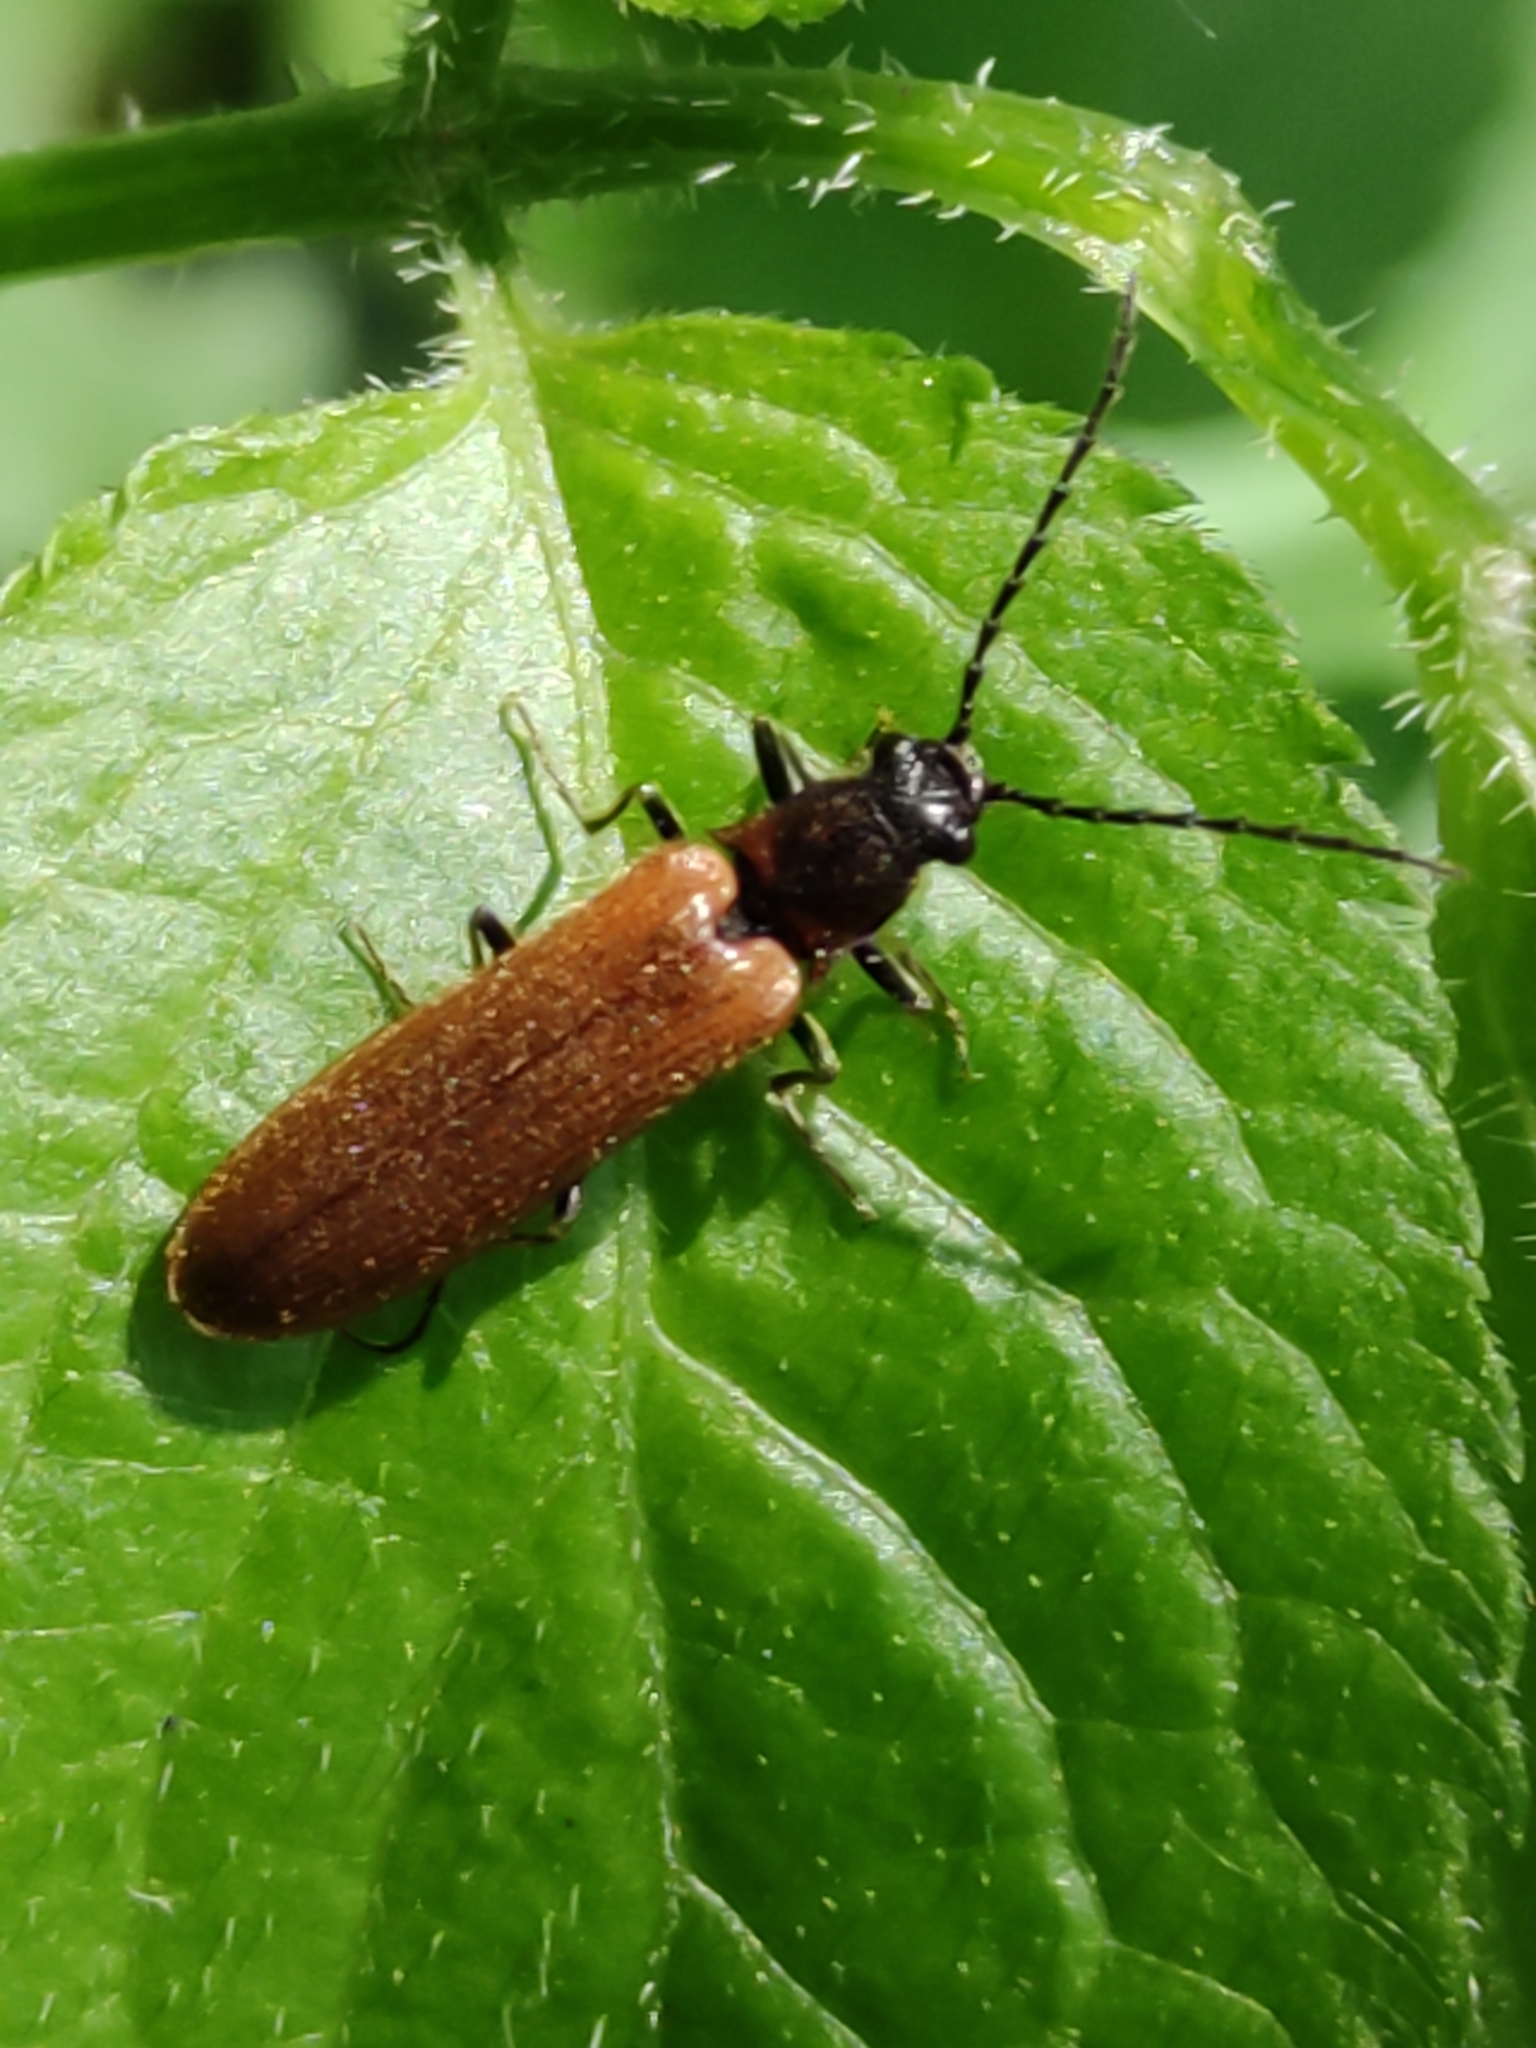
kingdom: Animalia
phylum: Arthropoda
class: Insecta
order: Coleoptera
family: Elateridae
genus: Denticollis
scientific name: Denticollis linearis
